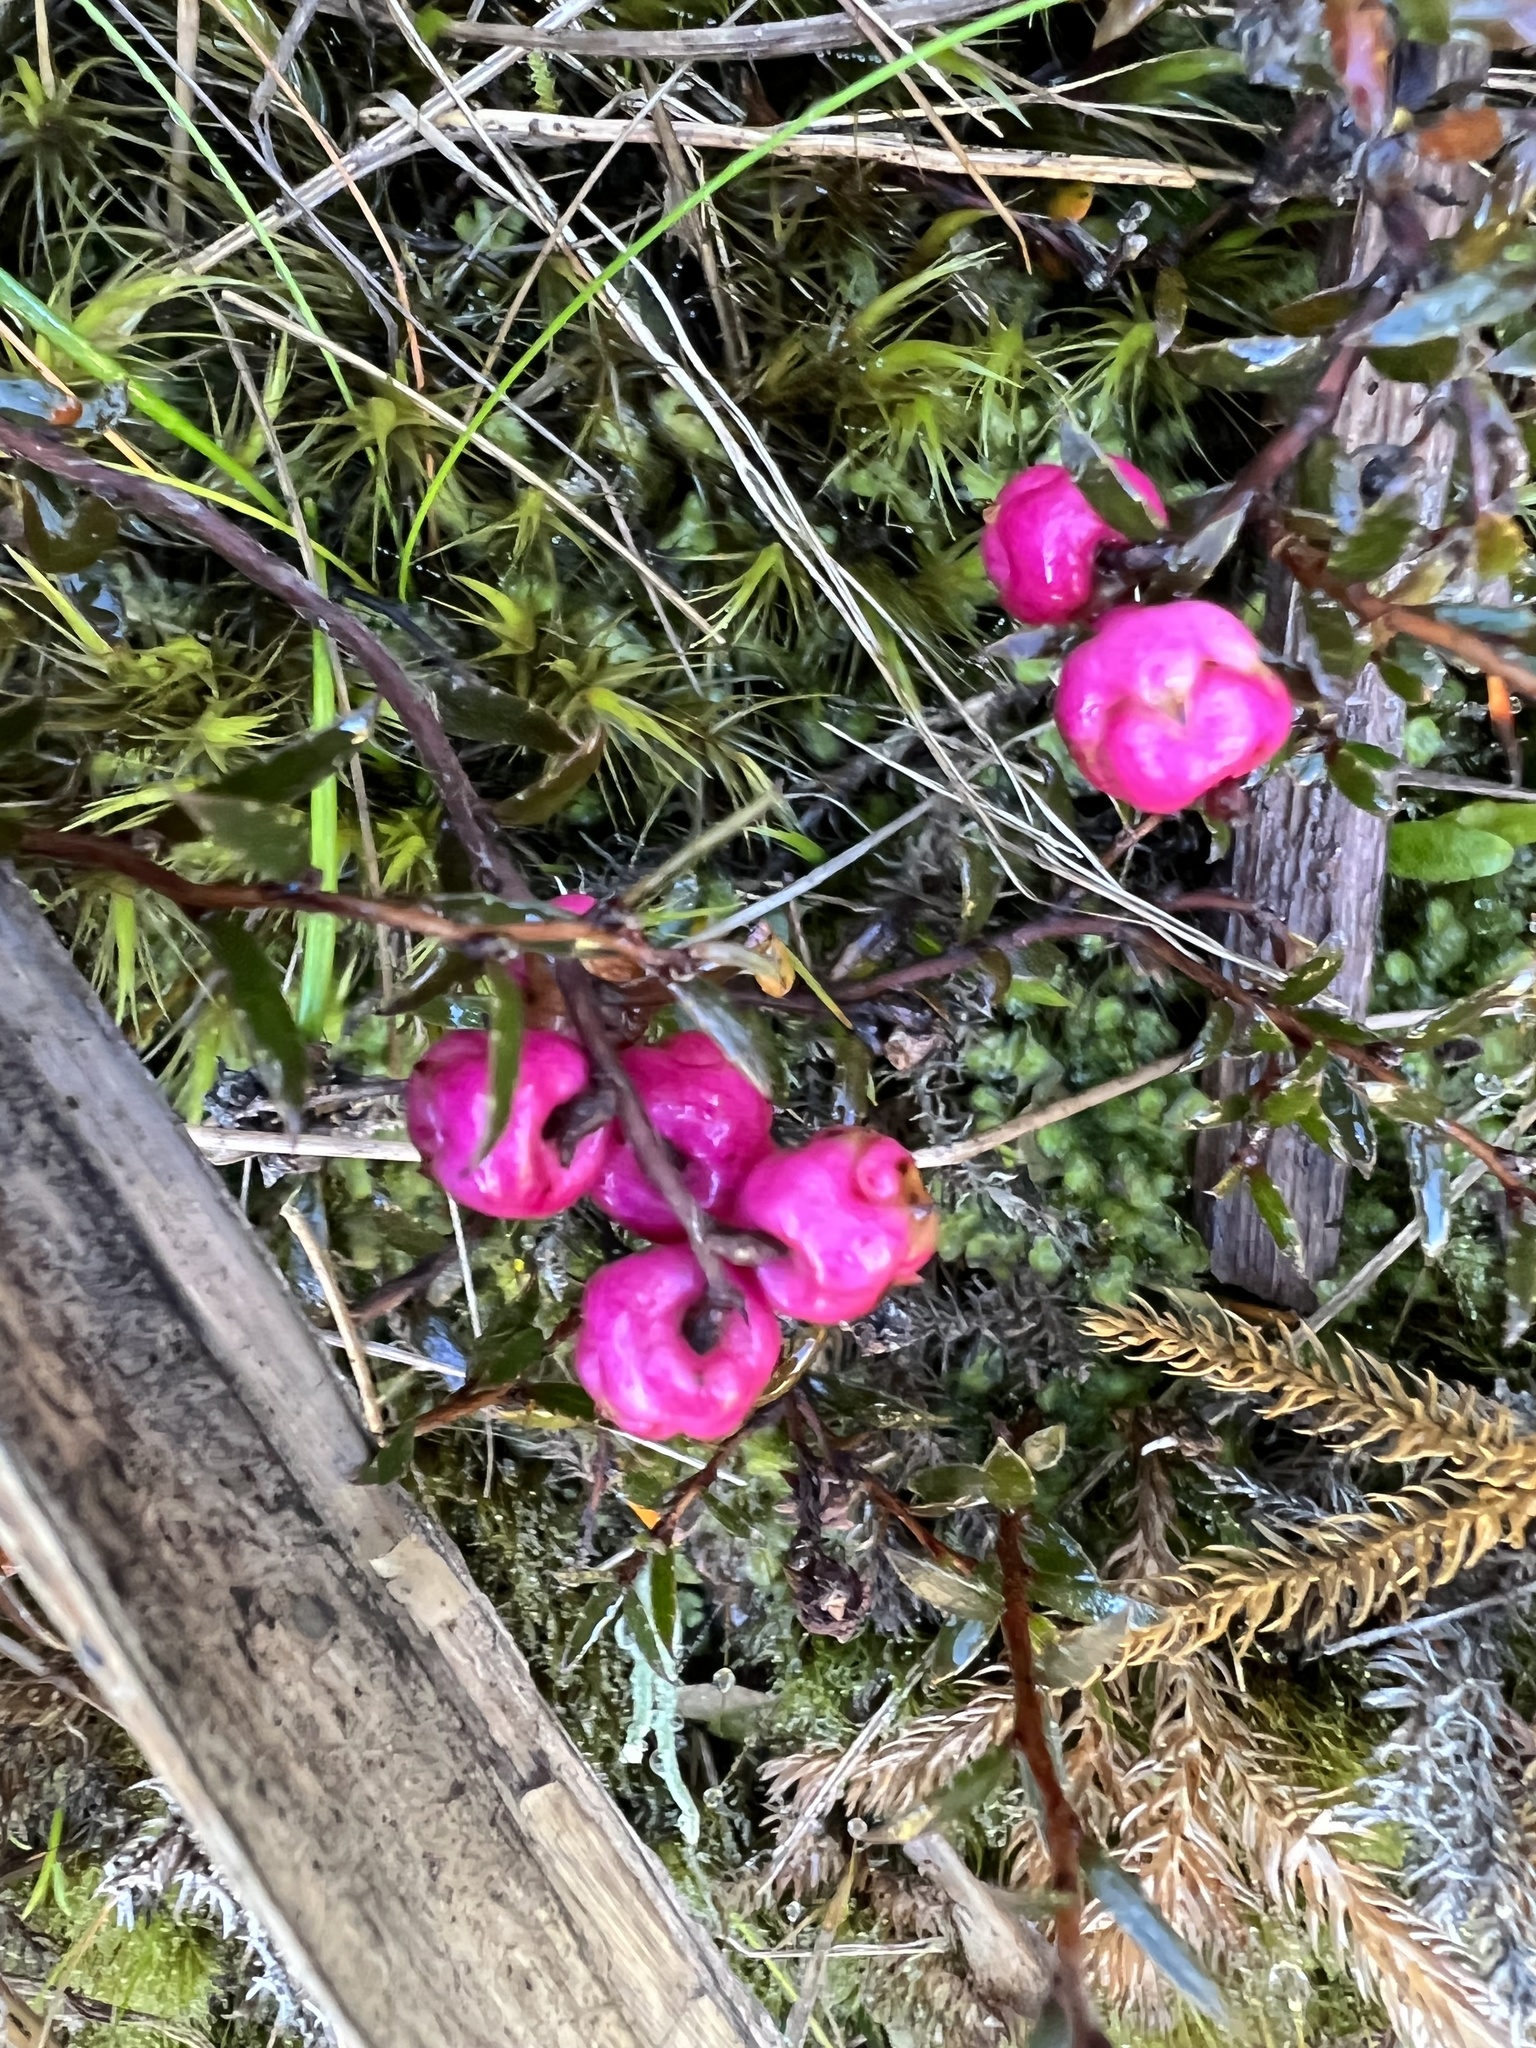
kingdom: Plantae
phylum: Tracheophyta
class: Magnoliopsida
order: Ericales
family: Ericaceae
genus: Gaultheria
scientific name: Gaultheria macrostigma
